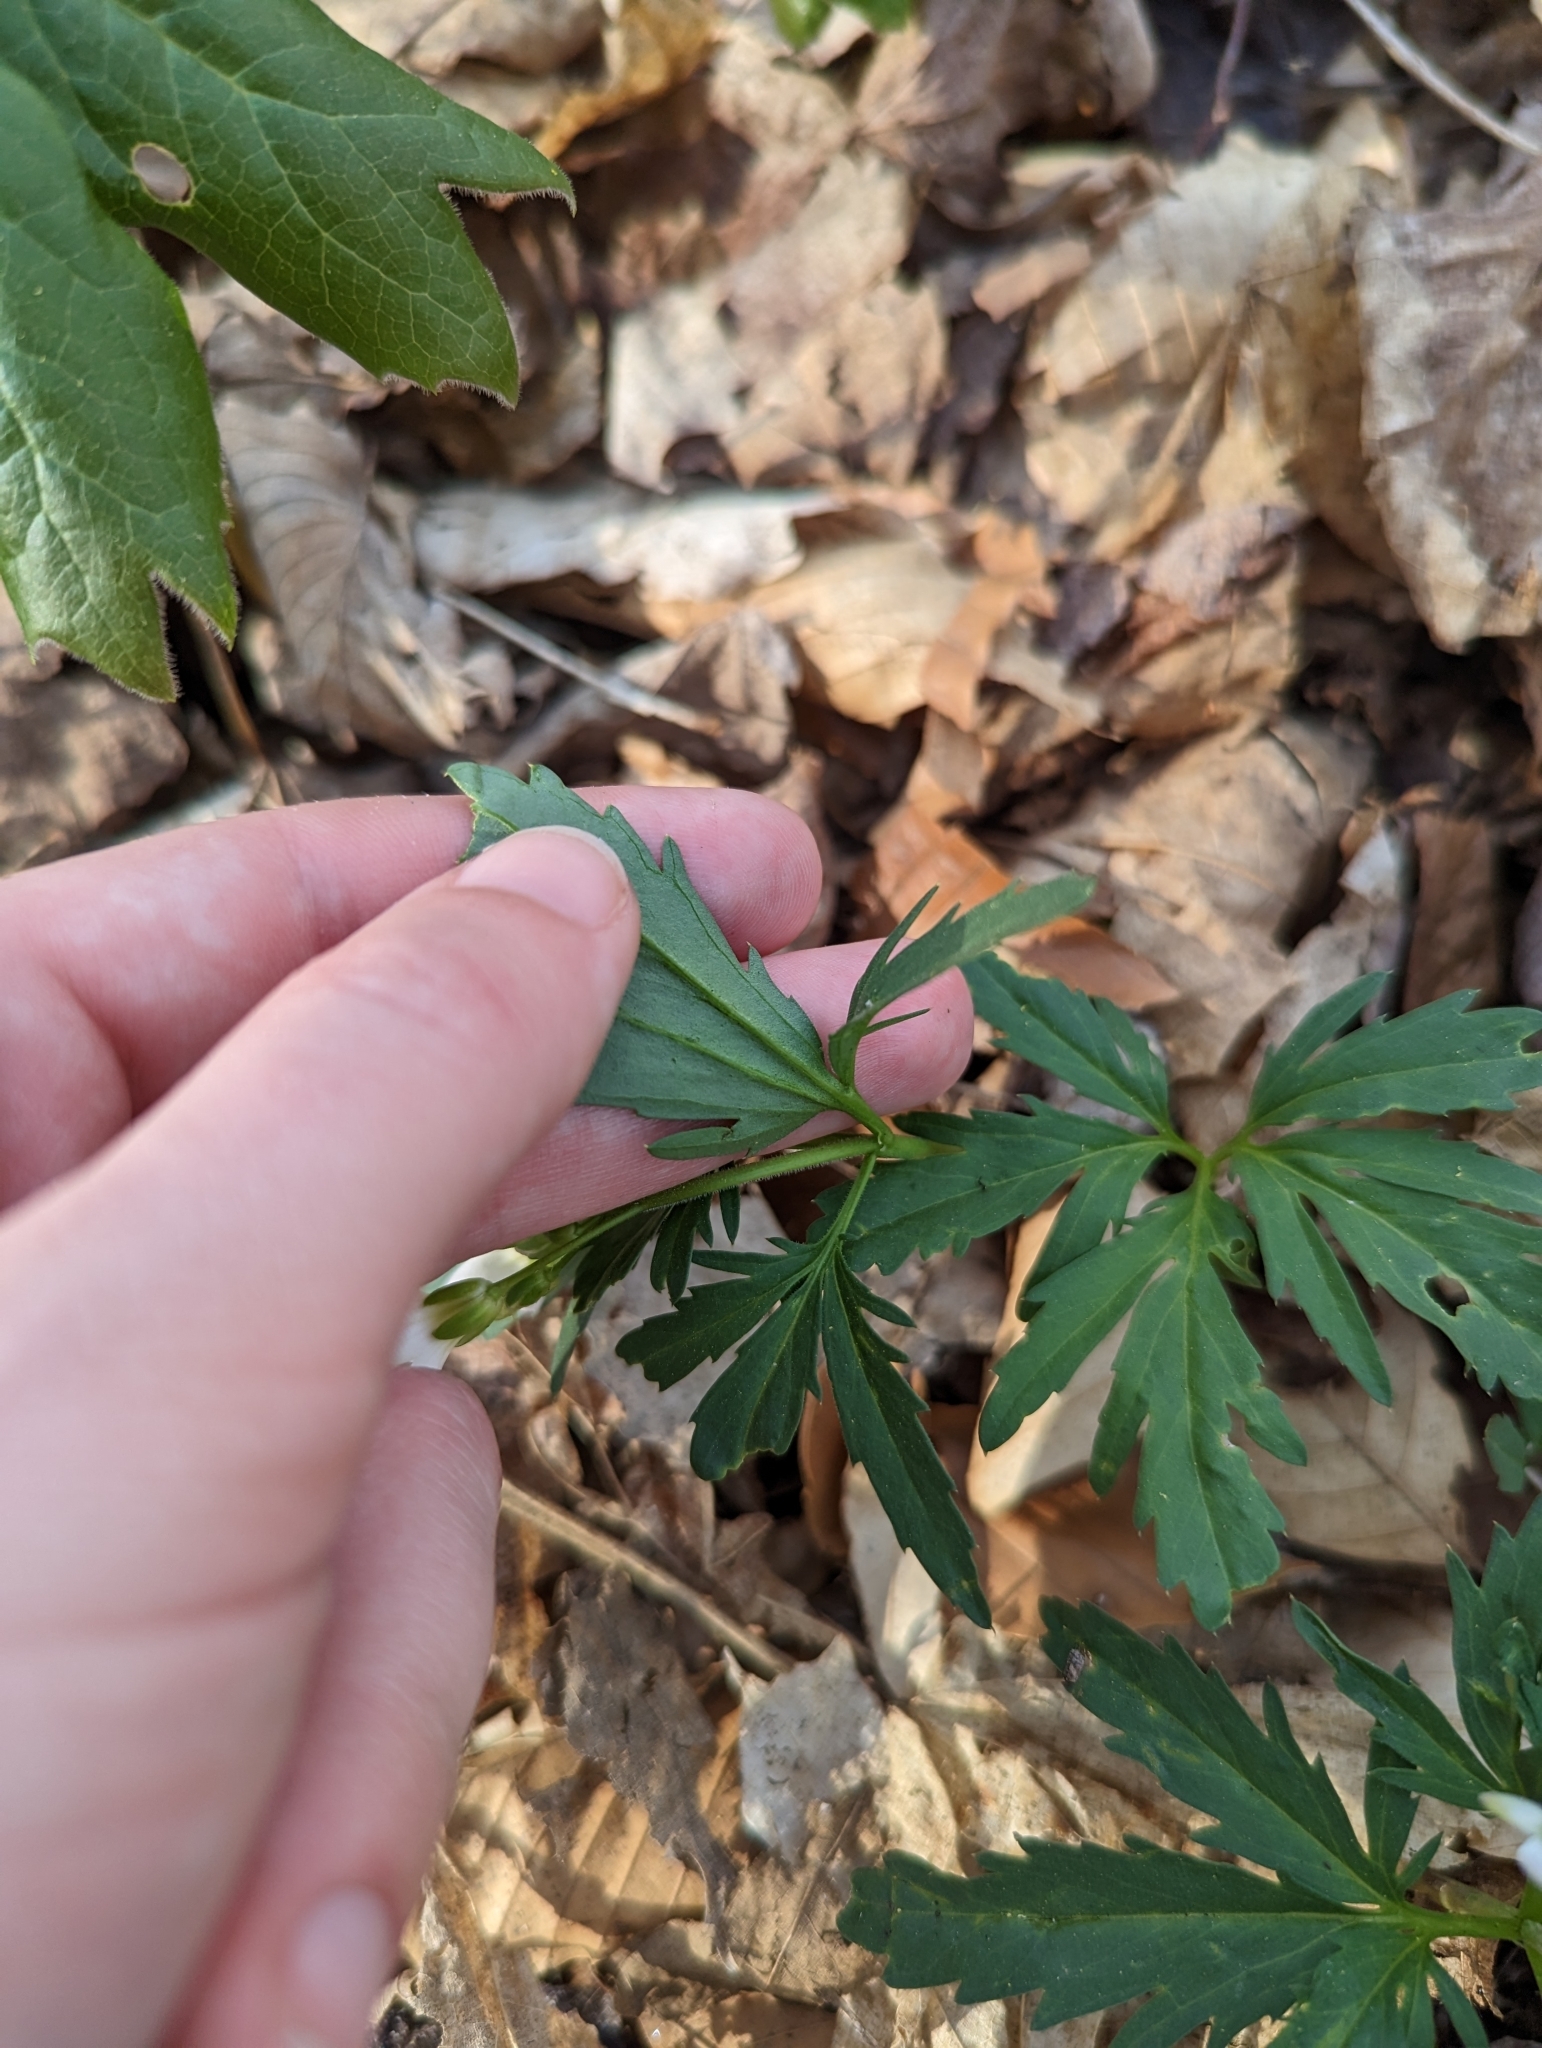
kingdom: Plantae
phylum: Tracheophyta
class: Magnoliopsida
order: Brassicales
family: Brassicaceae
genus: Cardamine
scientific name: Cardamine concatenata
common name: Cut-leaf toothcup
